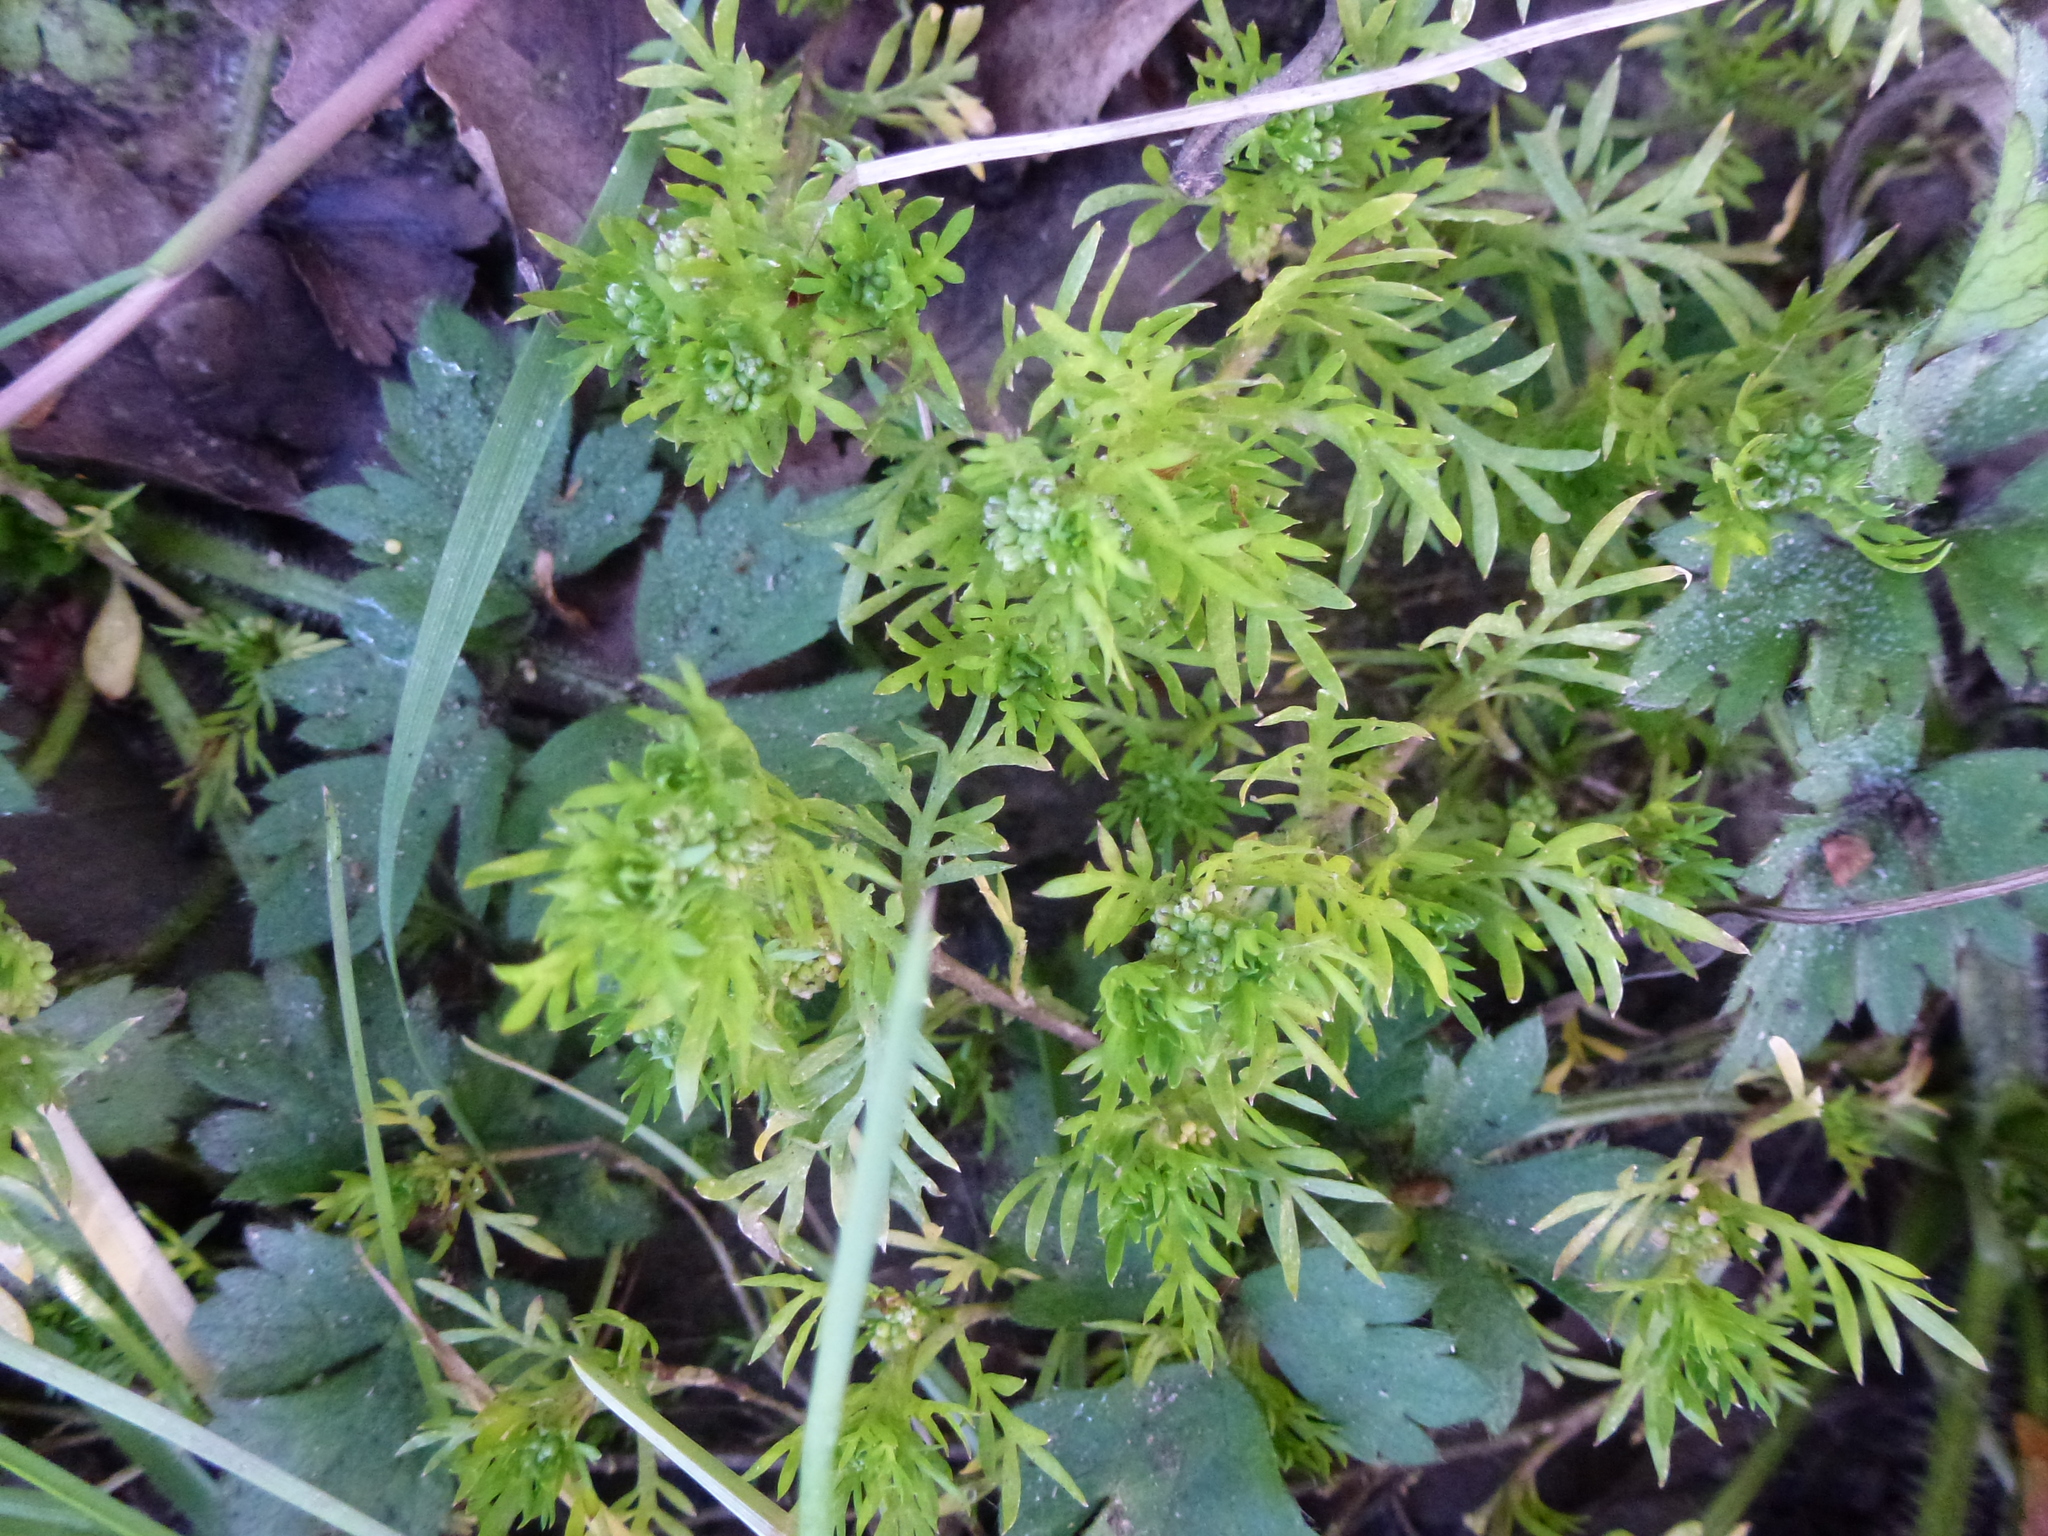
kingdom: Plantae
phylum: Tracheophyta
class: Magnoliopsida
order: Brassicales
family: Brassicaceae
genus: Lepidium
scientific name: Lepidium didymum
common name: Lesser swinecress
